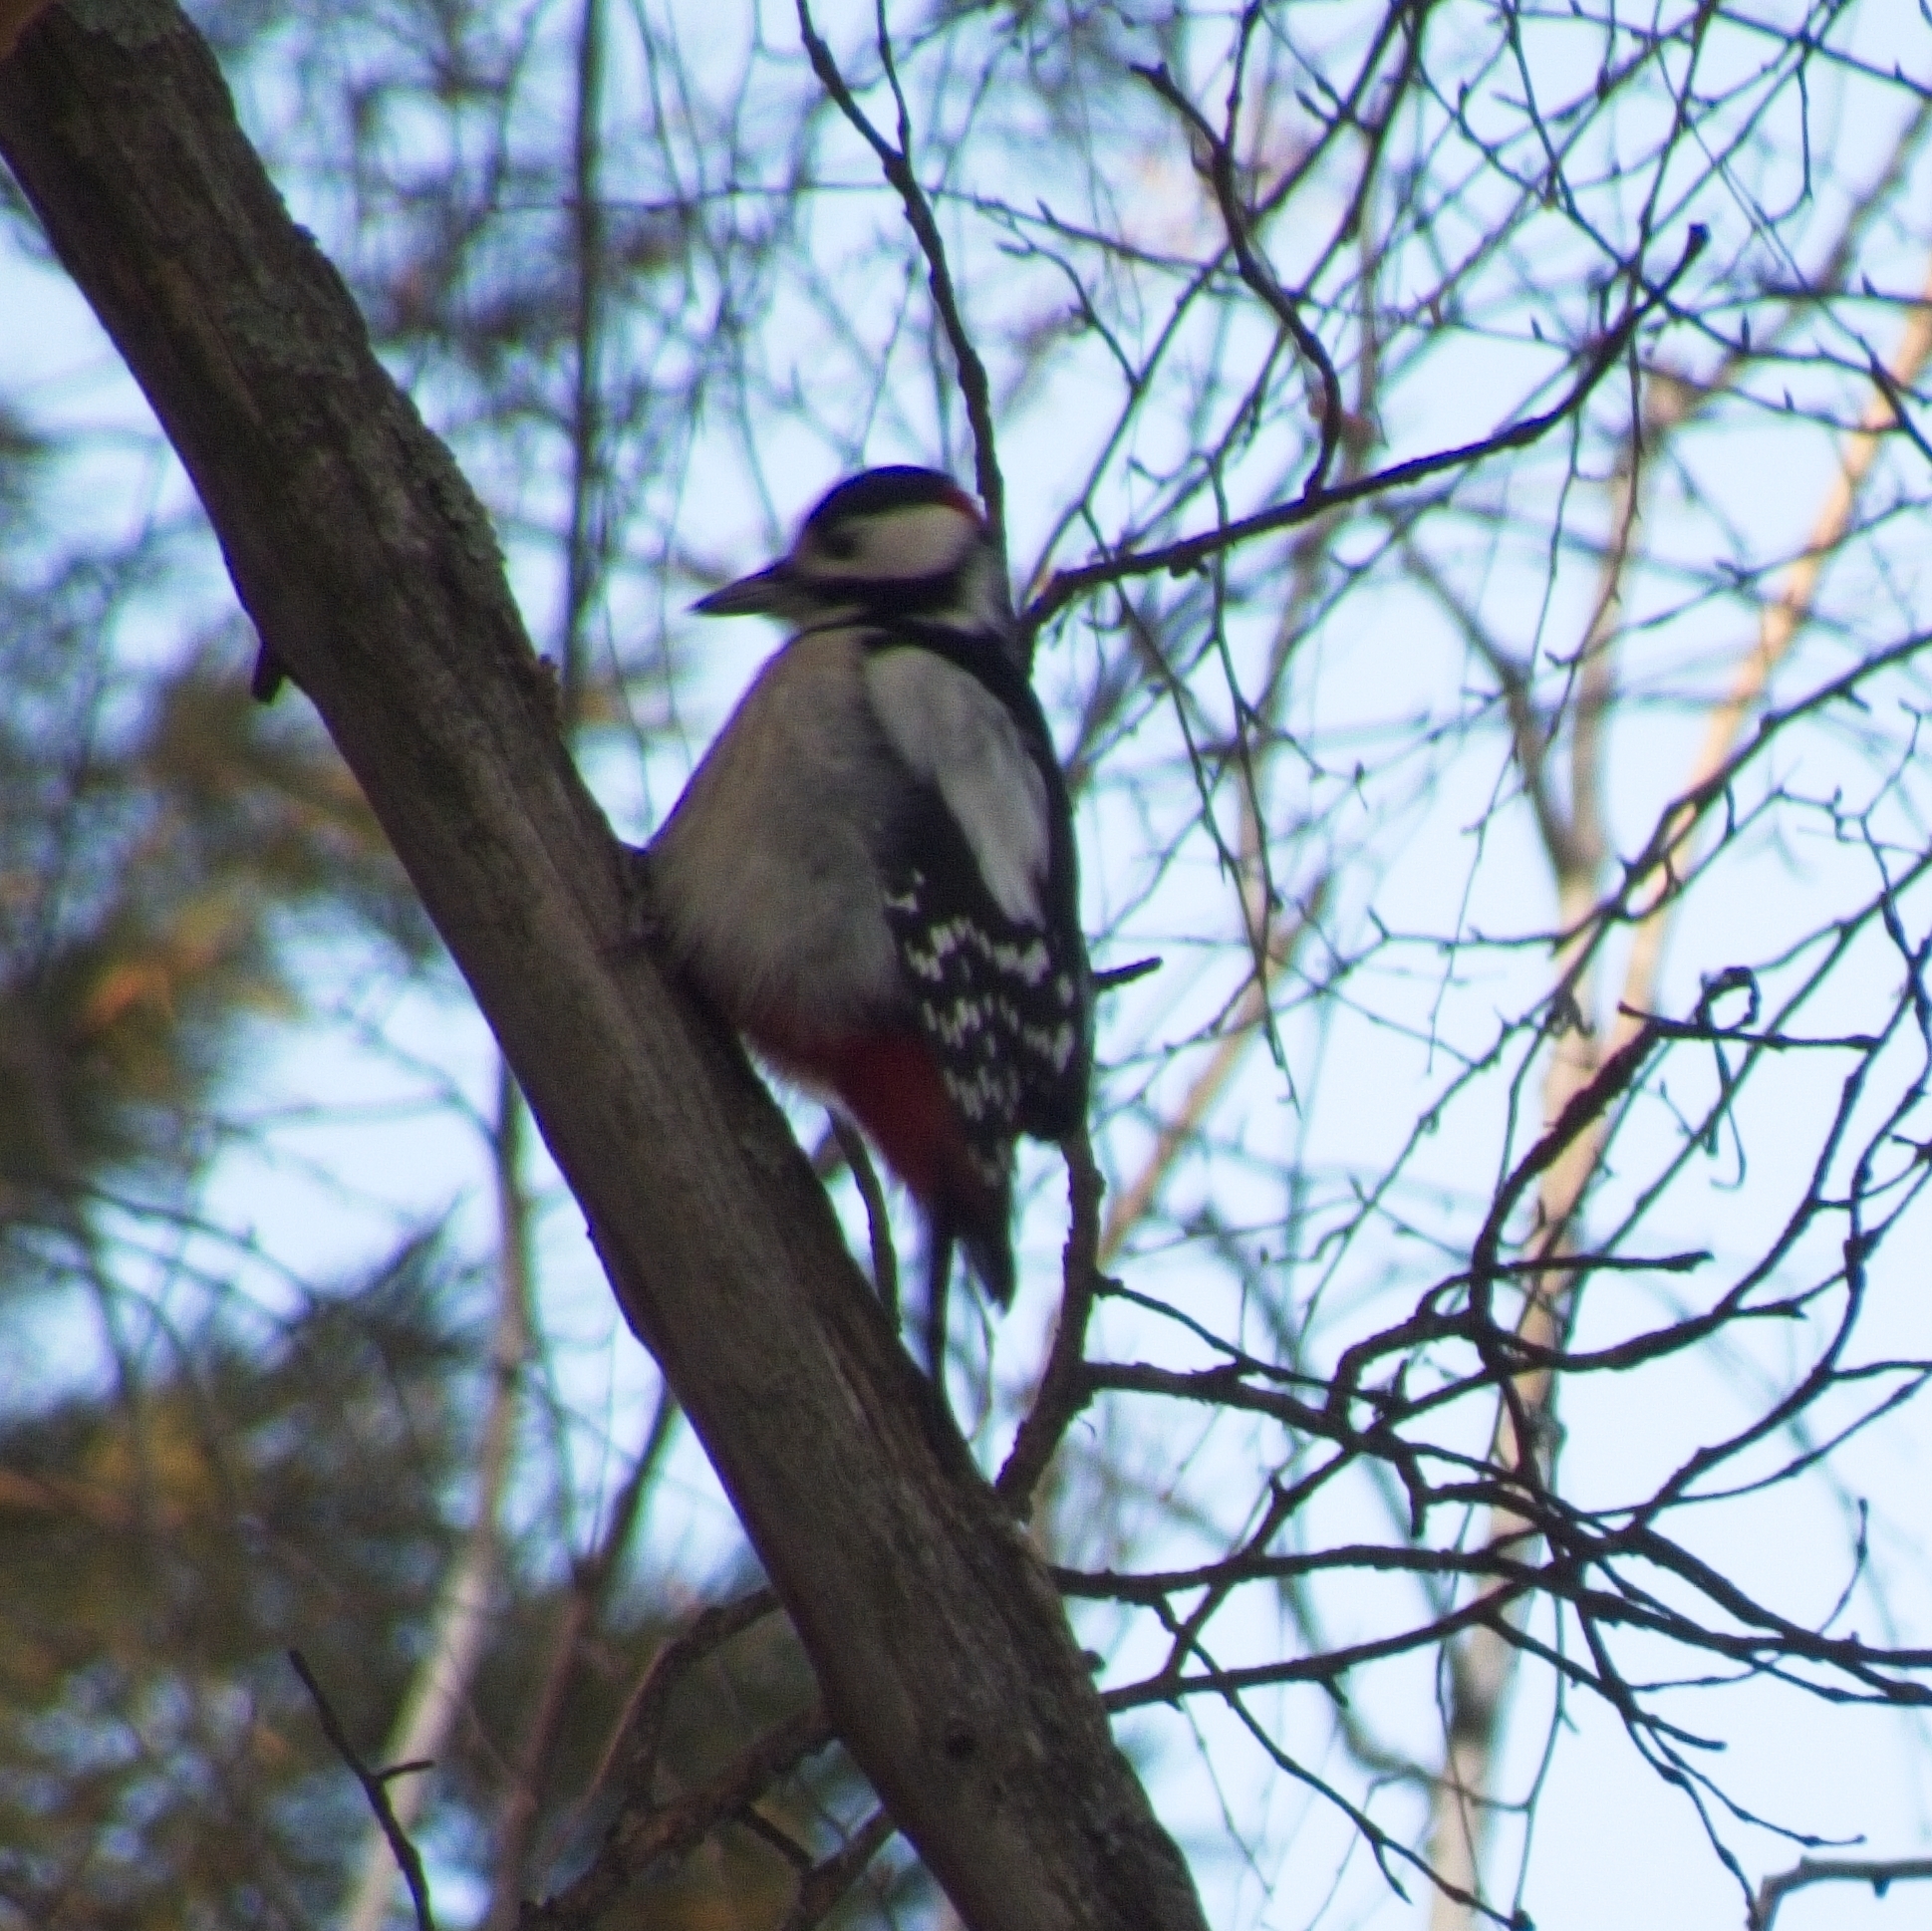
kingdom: Animalia
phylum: Chordata
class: Aves
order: Piciformes
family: Picidae
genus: Dendrocopos
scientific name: Dendrocopos major
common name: Great spotted woodpecker
